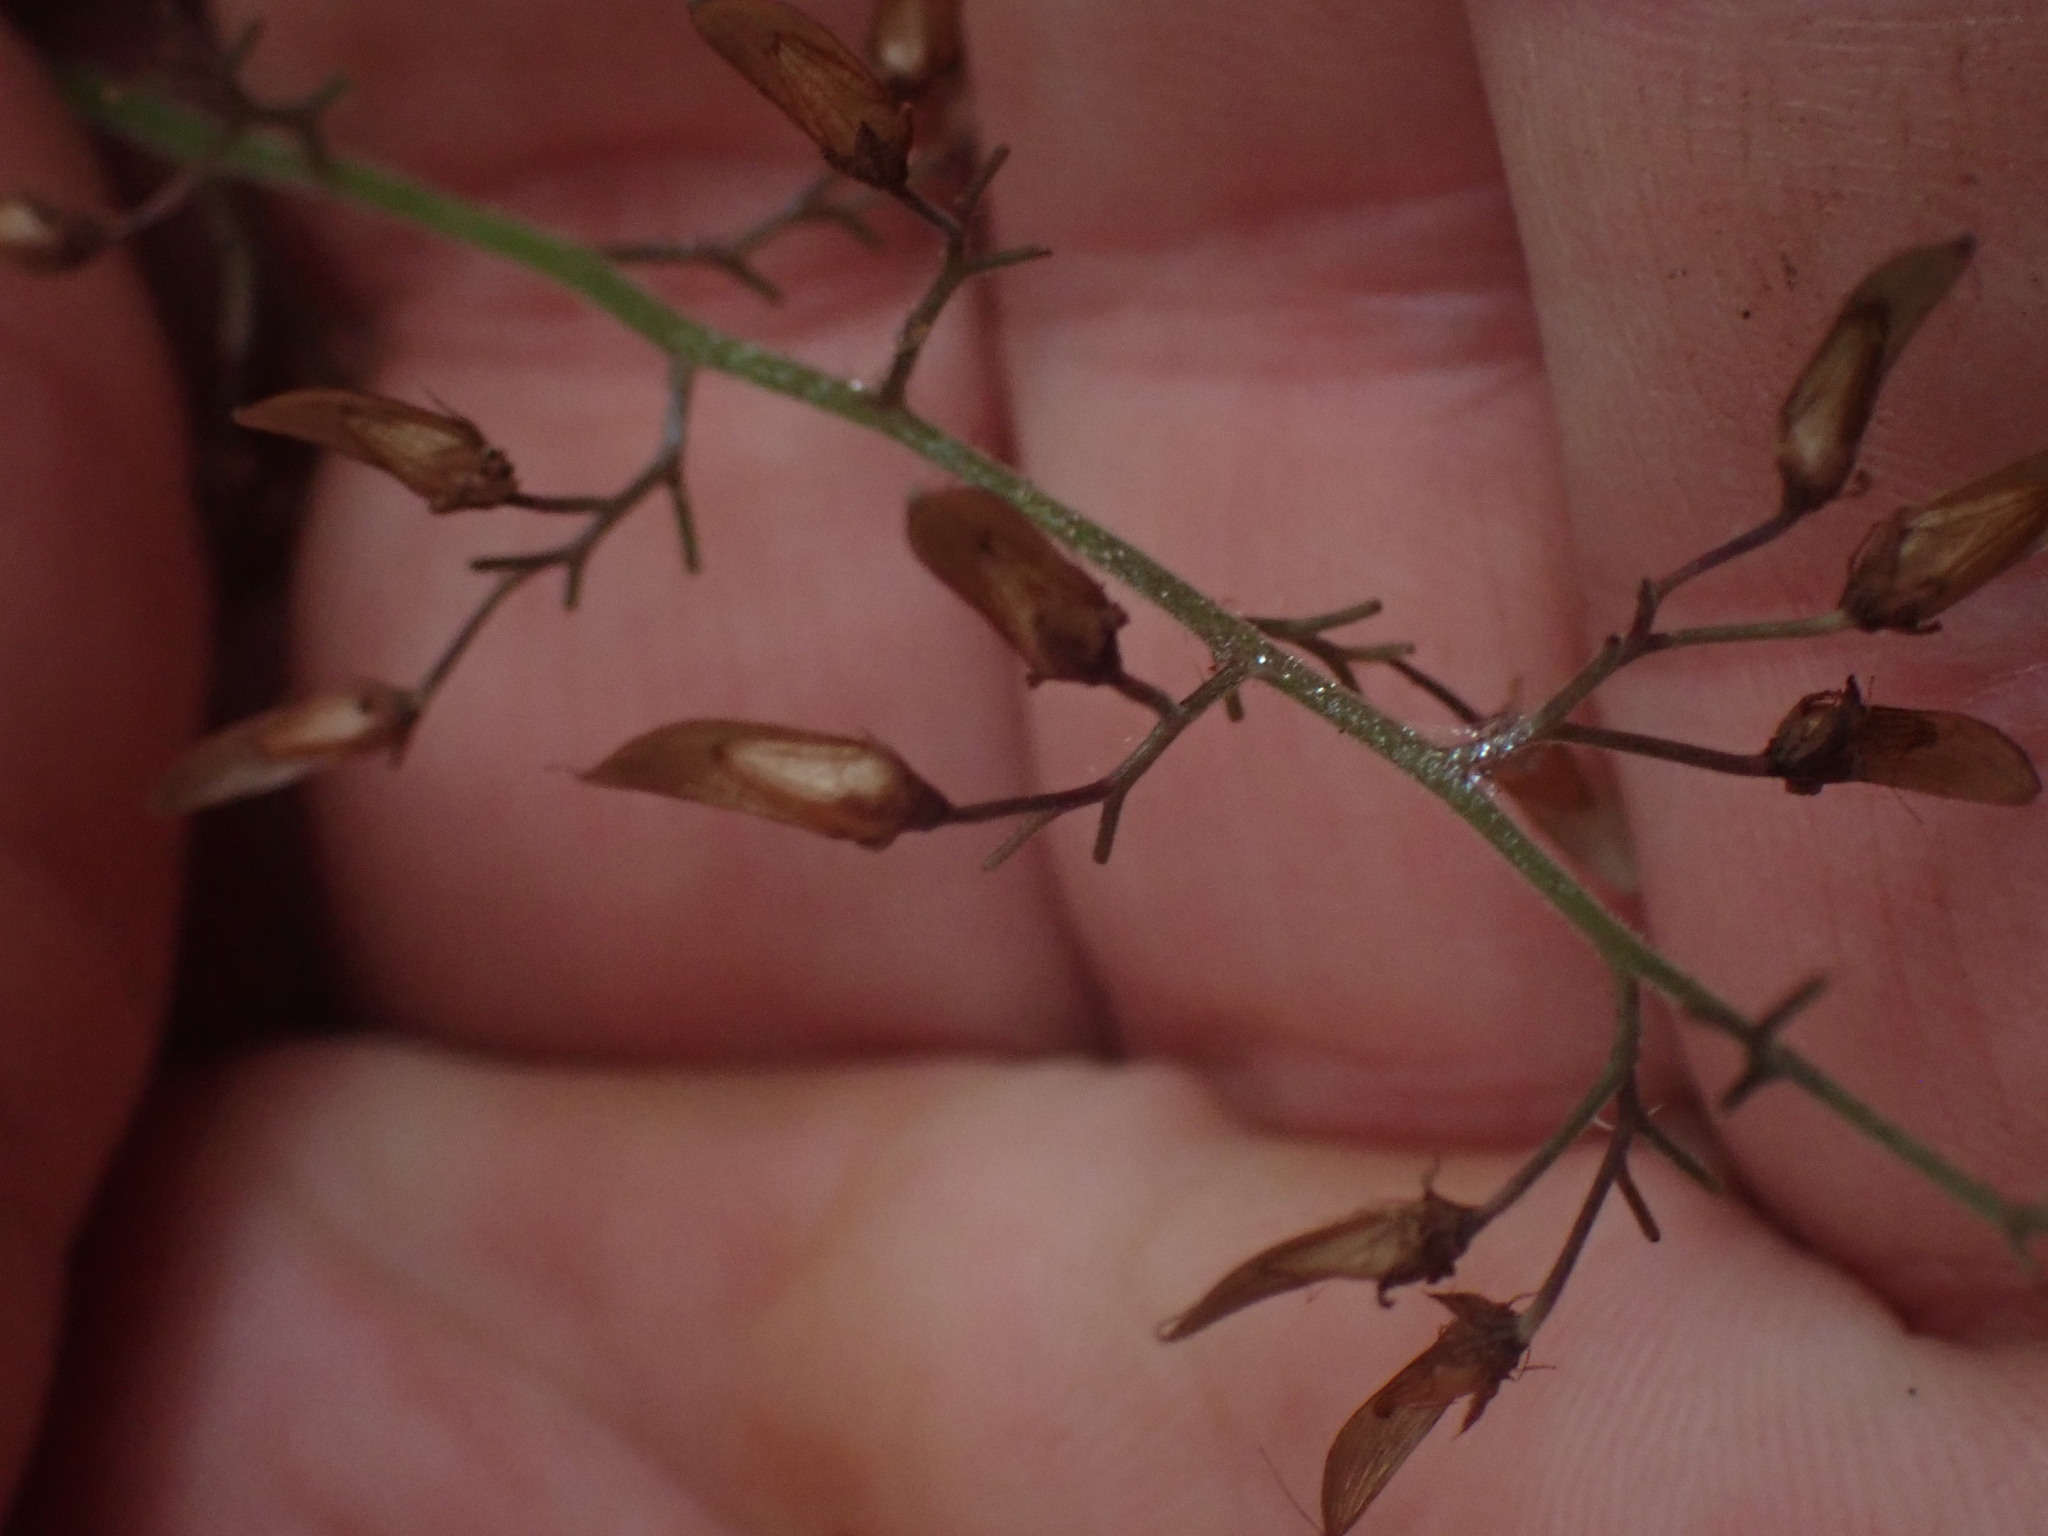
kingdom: Plantae
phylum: Tracheophyta
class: Magnoliopsida
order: Saxifragales
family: Saxifragaceae
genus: Tiarella
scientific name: Tiarella trifoliata
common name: Sugar-scoop
